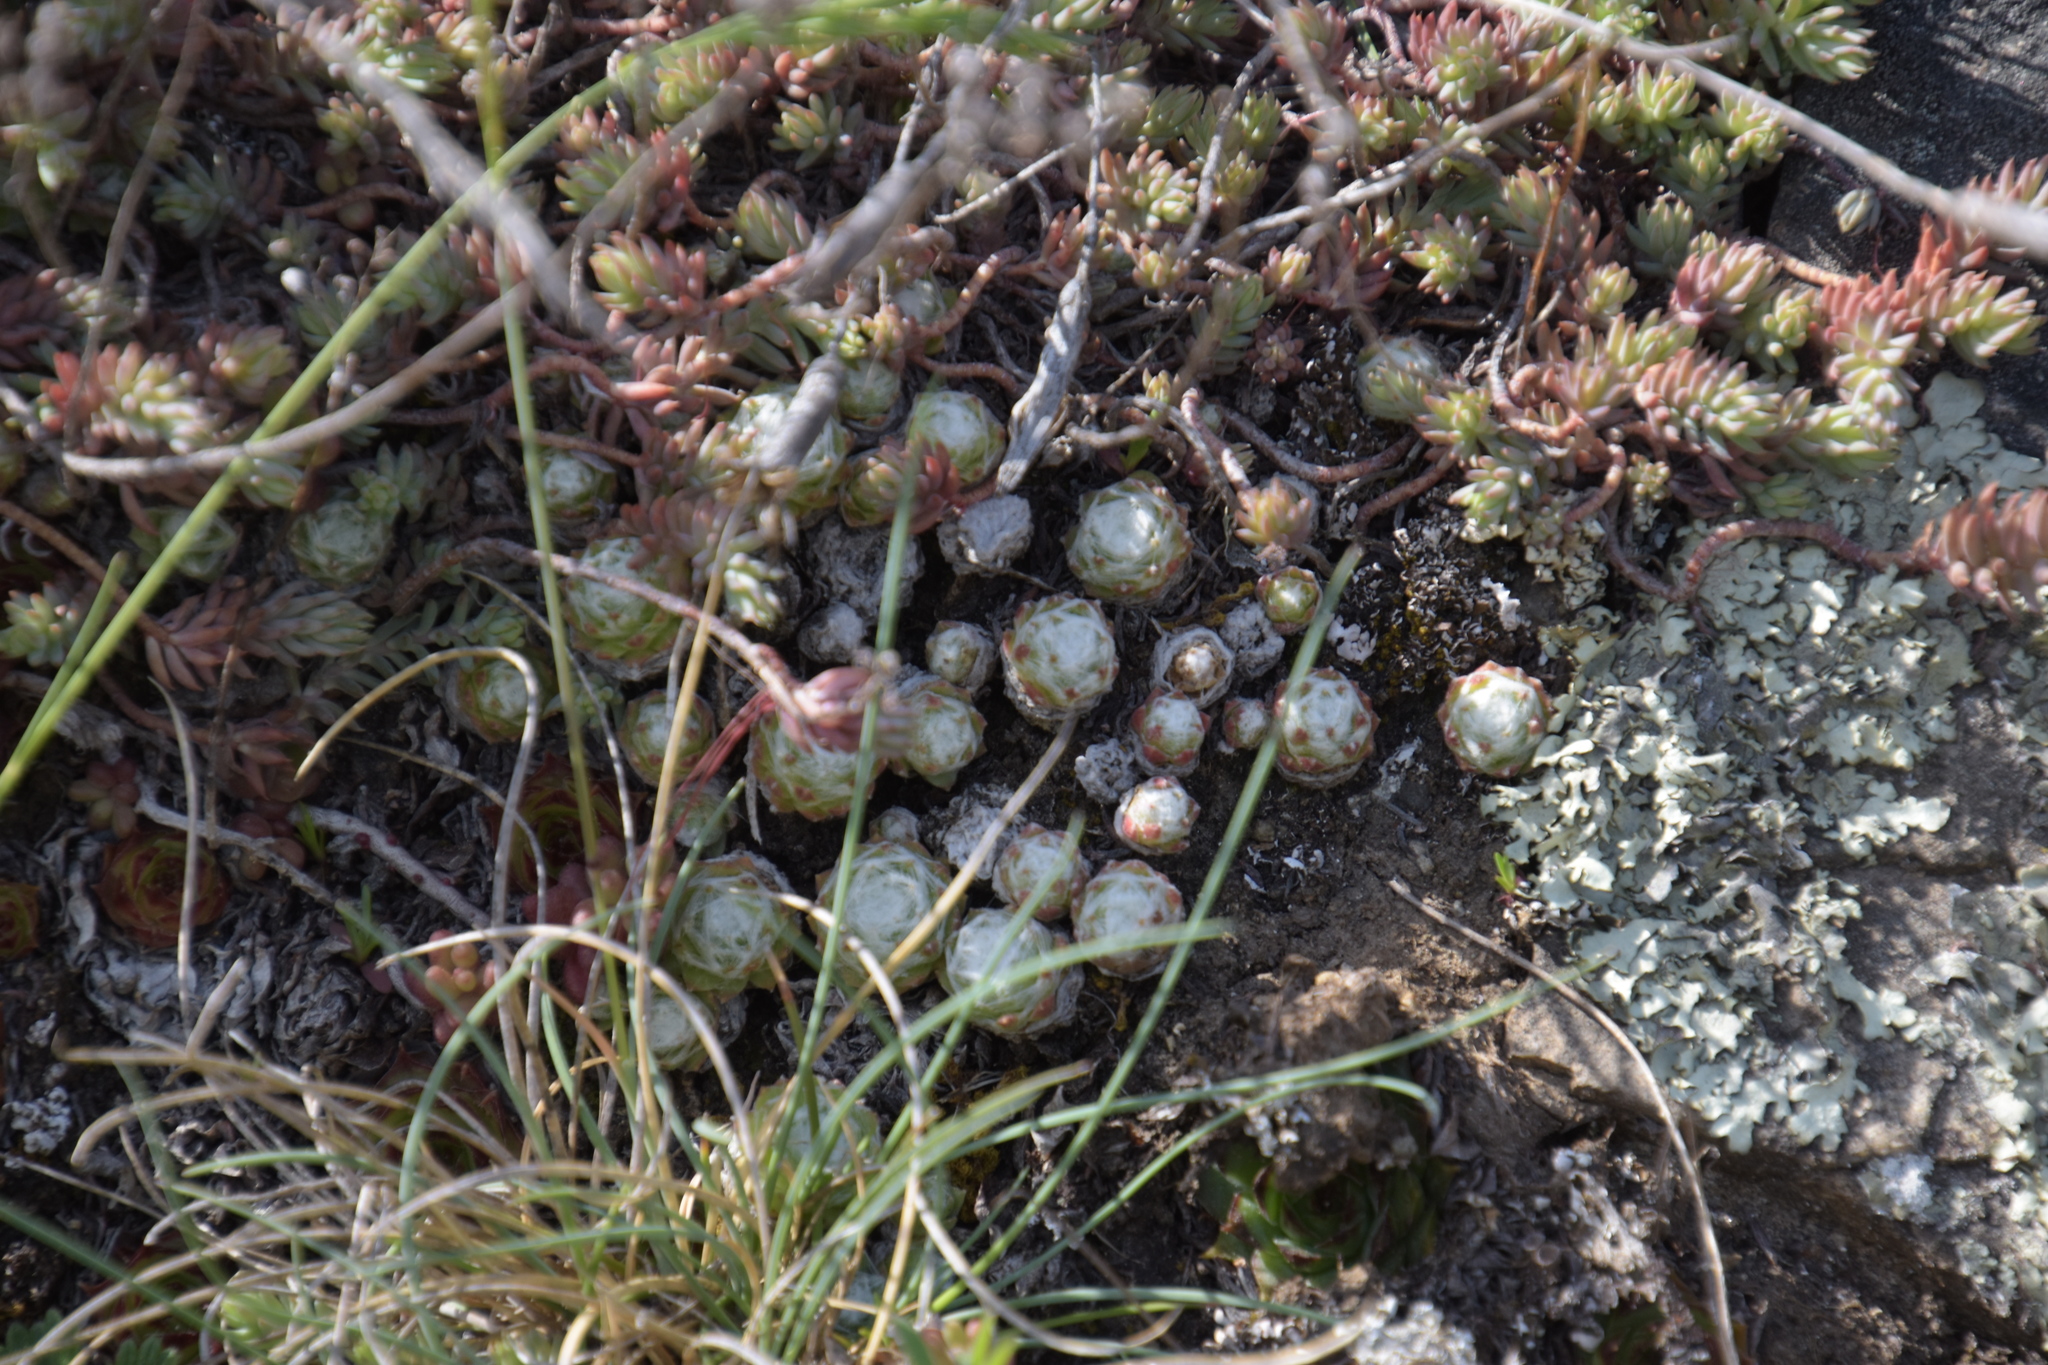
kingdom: Plantae
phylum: Tracheophyta
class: Magnoliopsida
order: Saxifragales
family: Crassulaceae
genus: Sempervivum
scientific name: Sempervivum arachnoideum
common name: Cobweb house-leek
